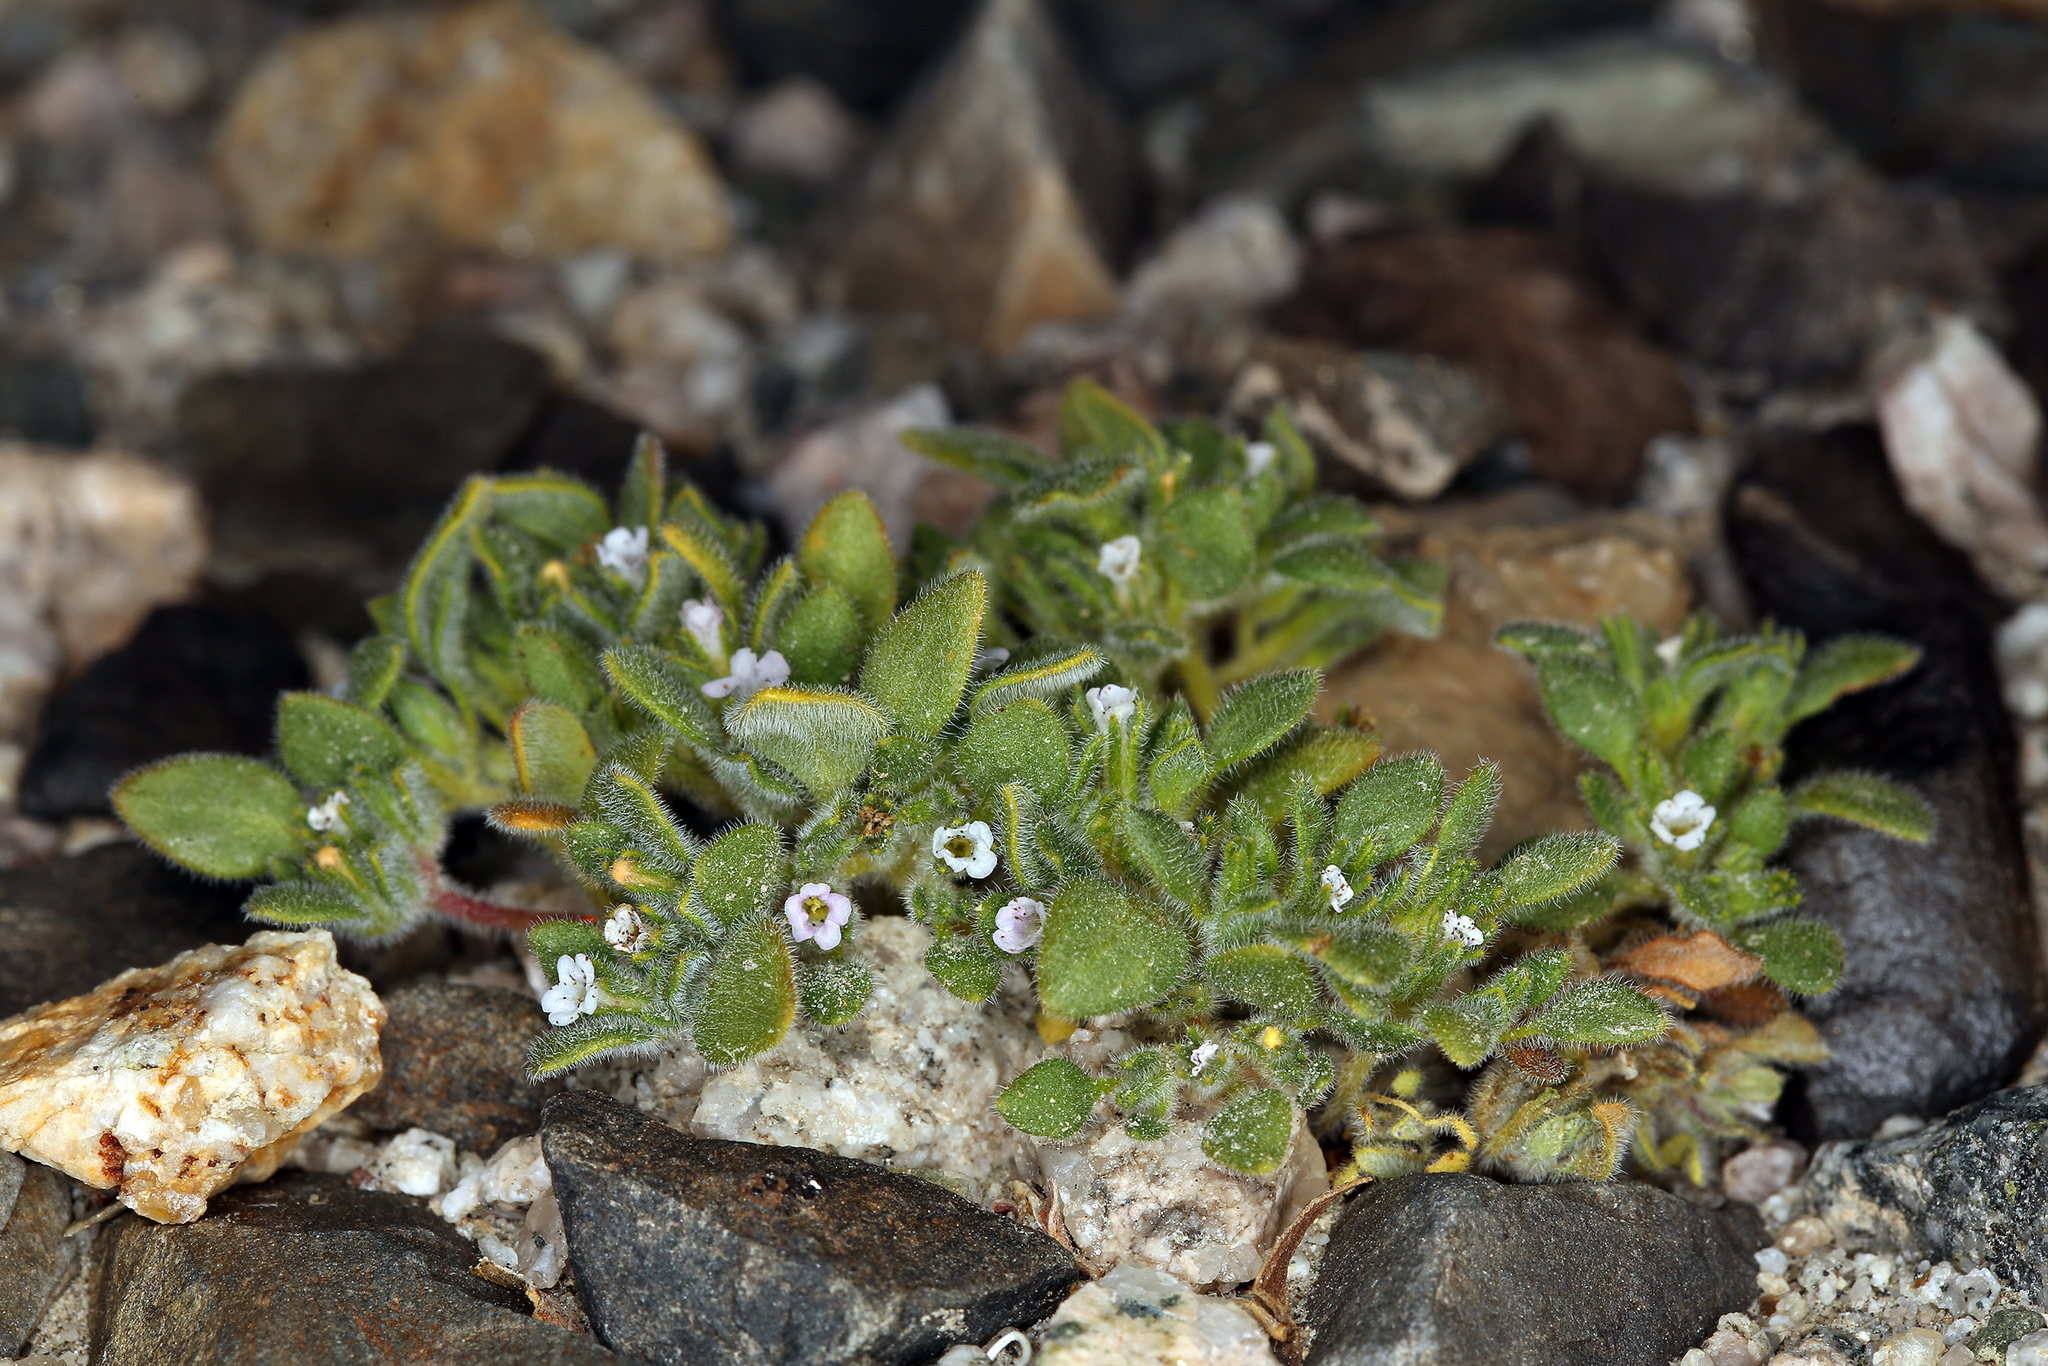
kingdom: Plantae
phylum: Tracheophyta
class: Magnoliopsida
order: Boraginales
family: Namaceae
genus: Nama
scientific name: Nama pusilla
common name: Eggleaf nama
